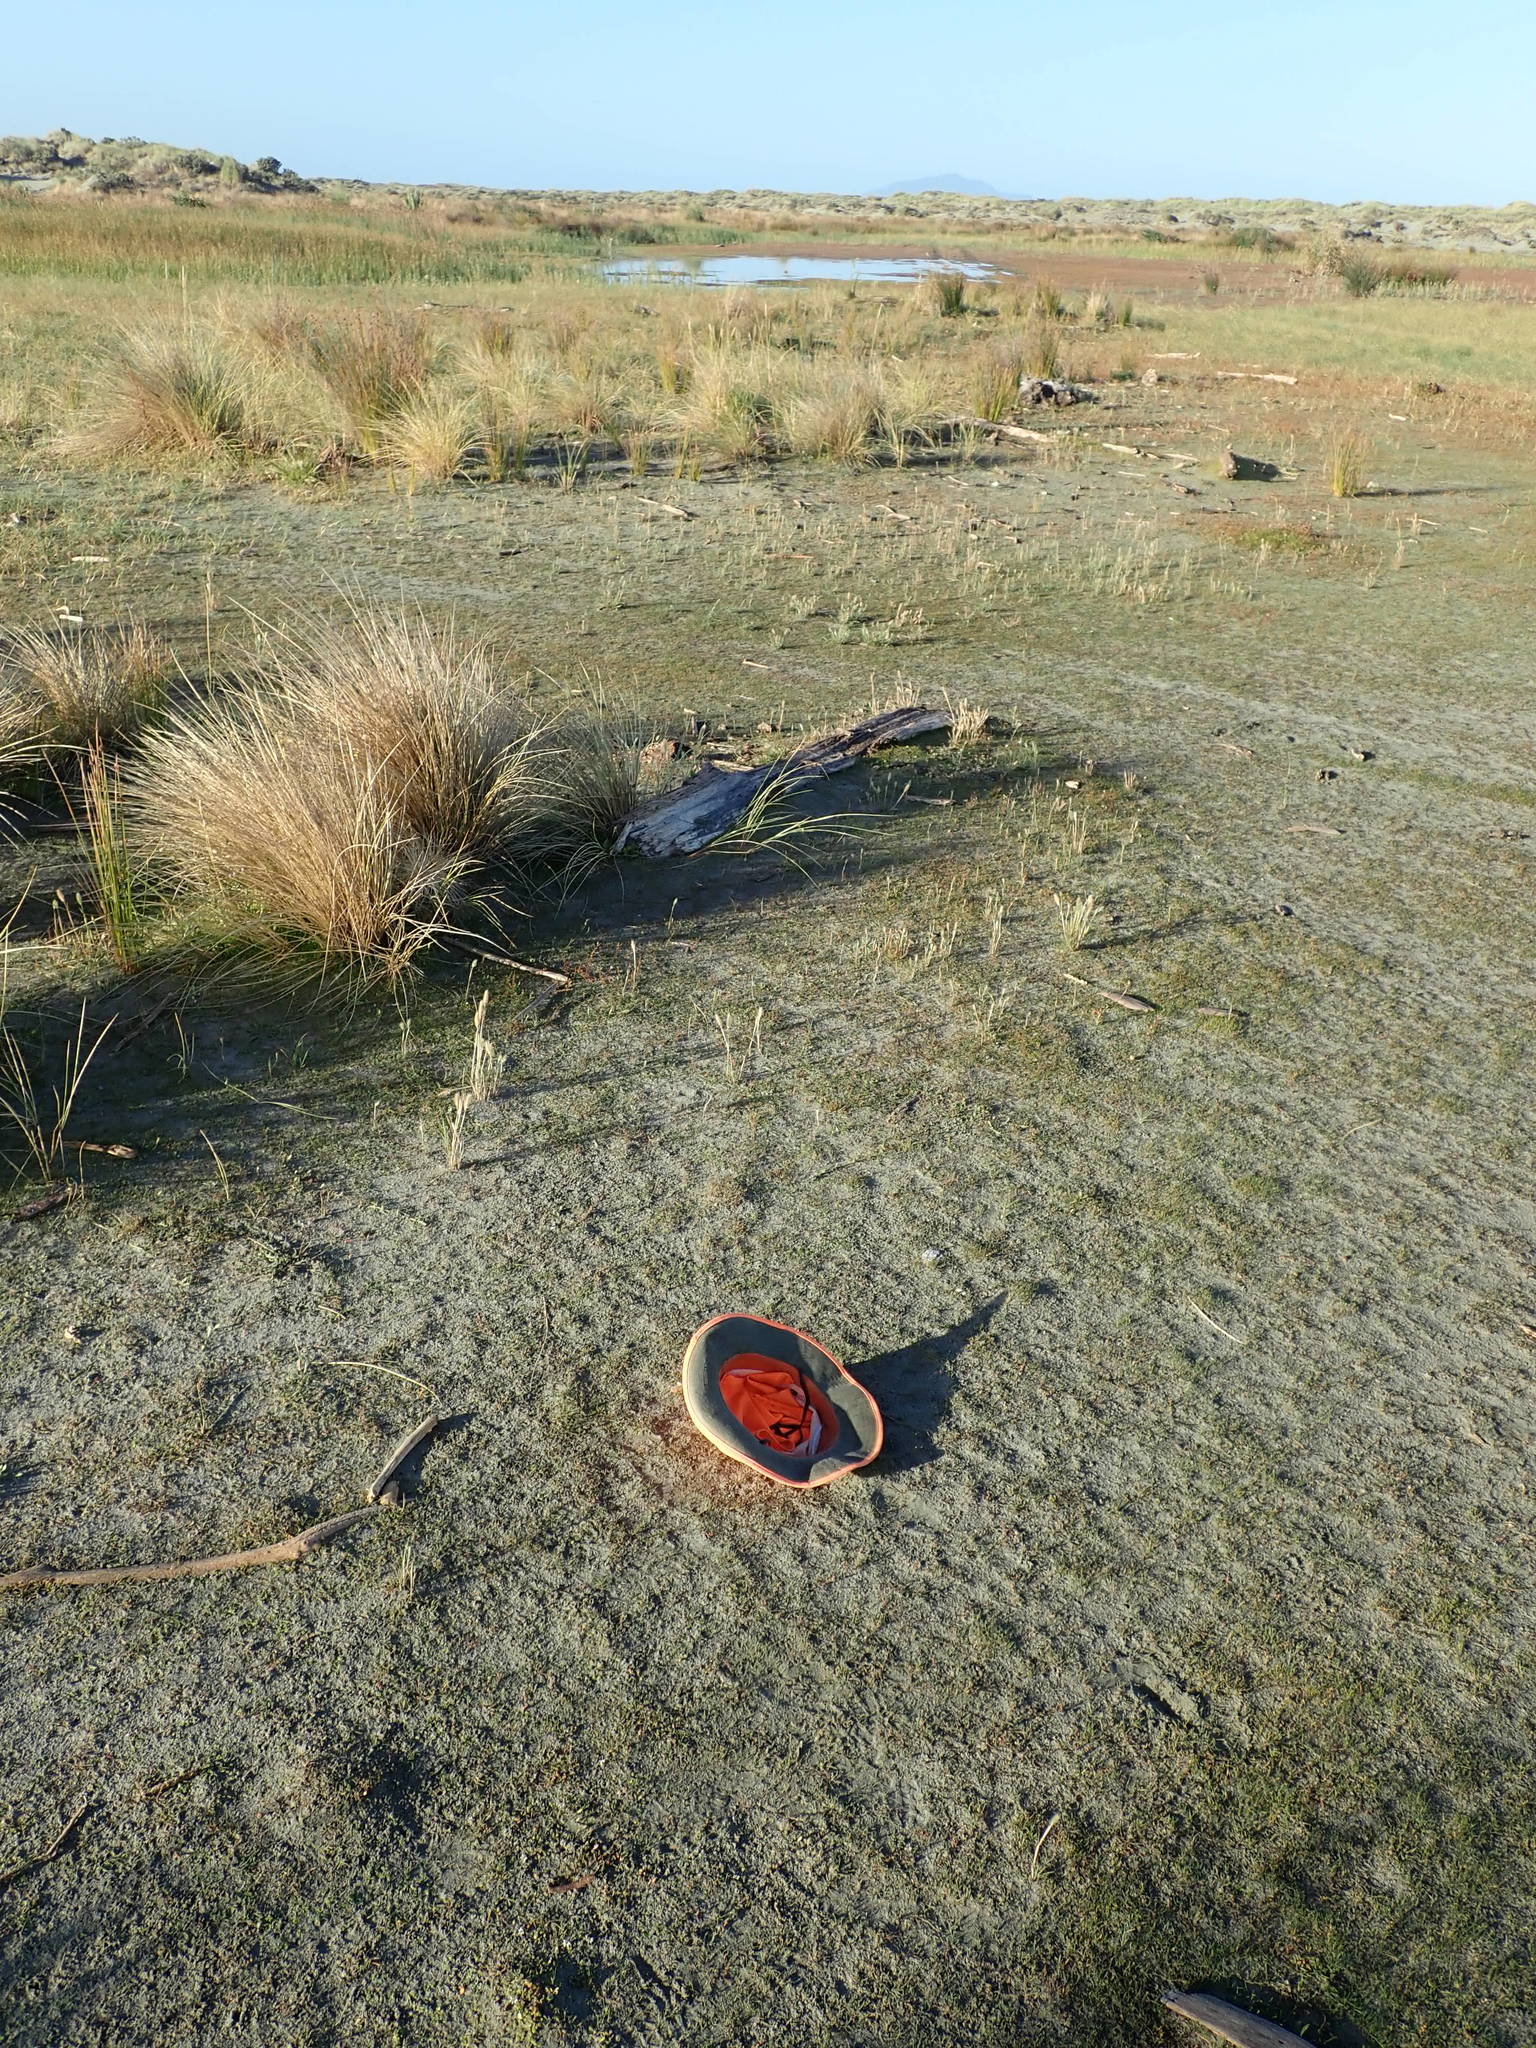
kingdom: Plantae
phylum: Tracheophyta
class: Magnoliopsida
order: Ranunculales
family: Ranunculaceae
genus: Ranunculus
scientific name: Ranunculus acaulis
